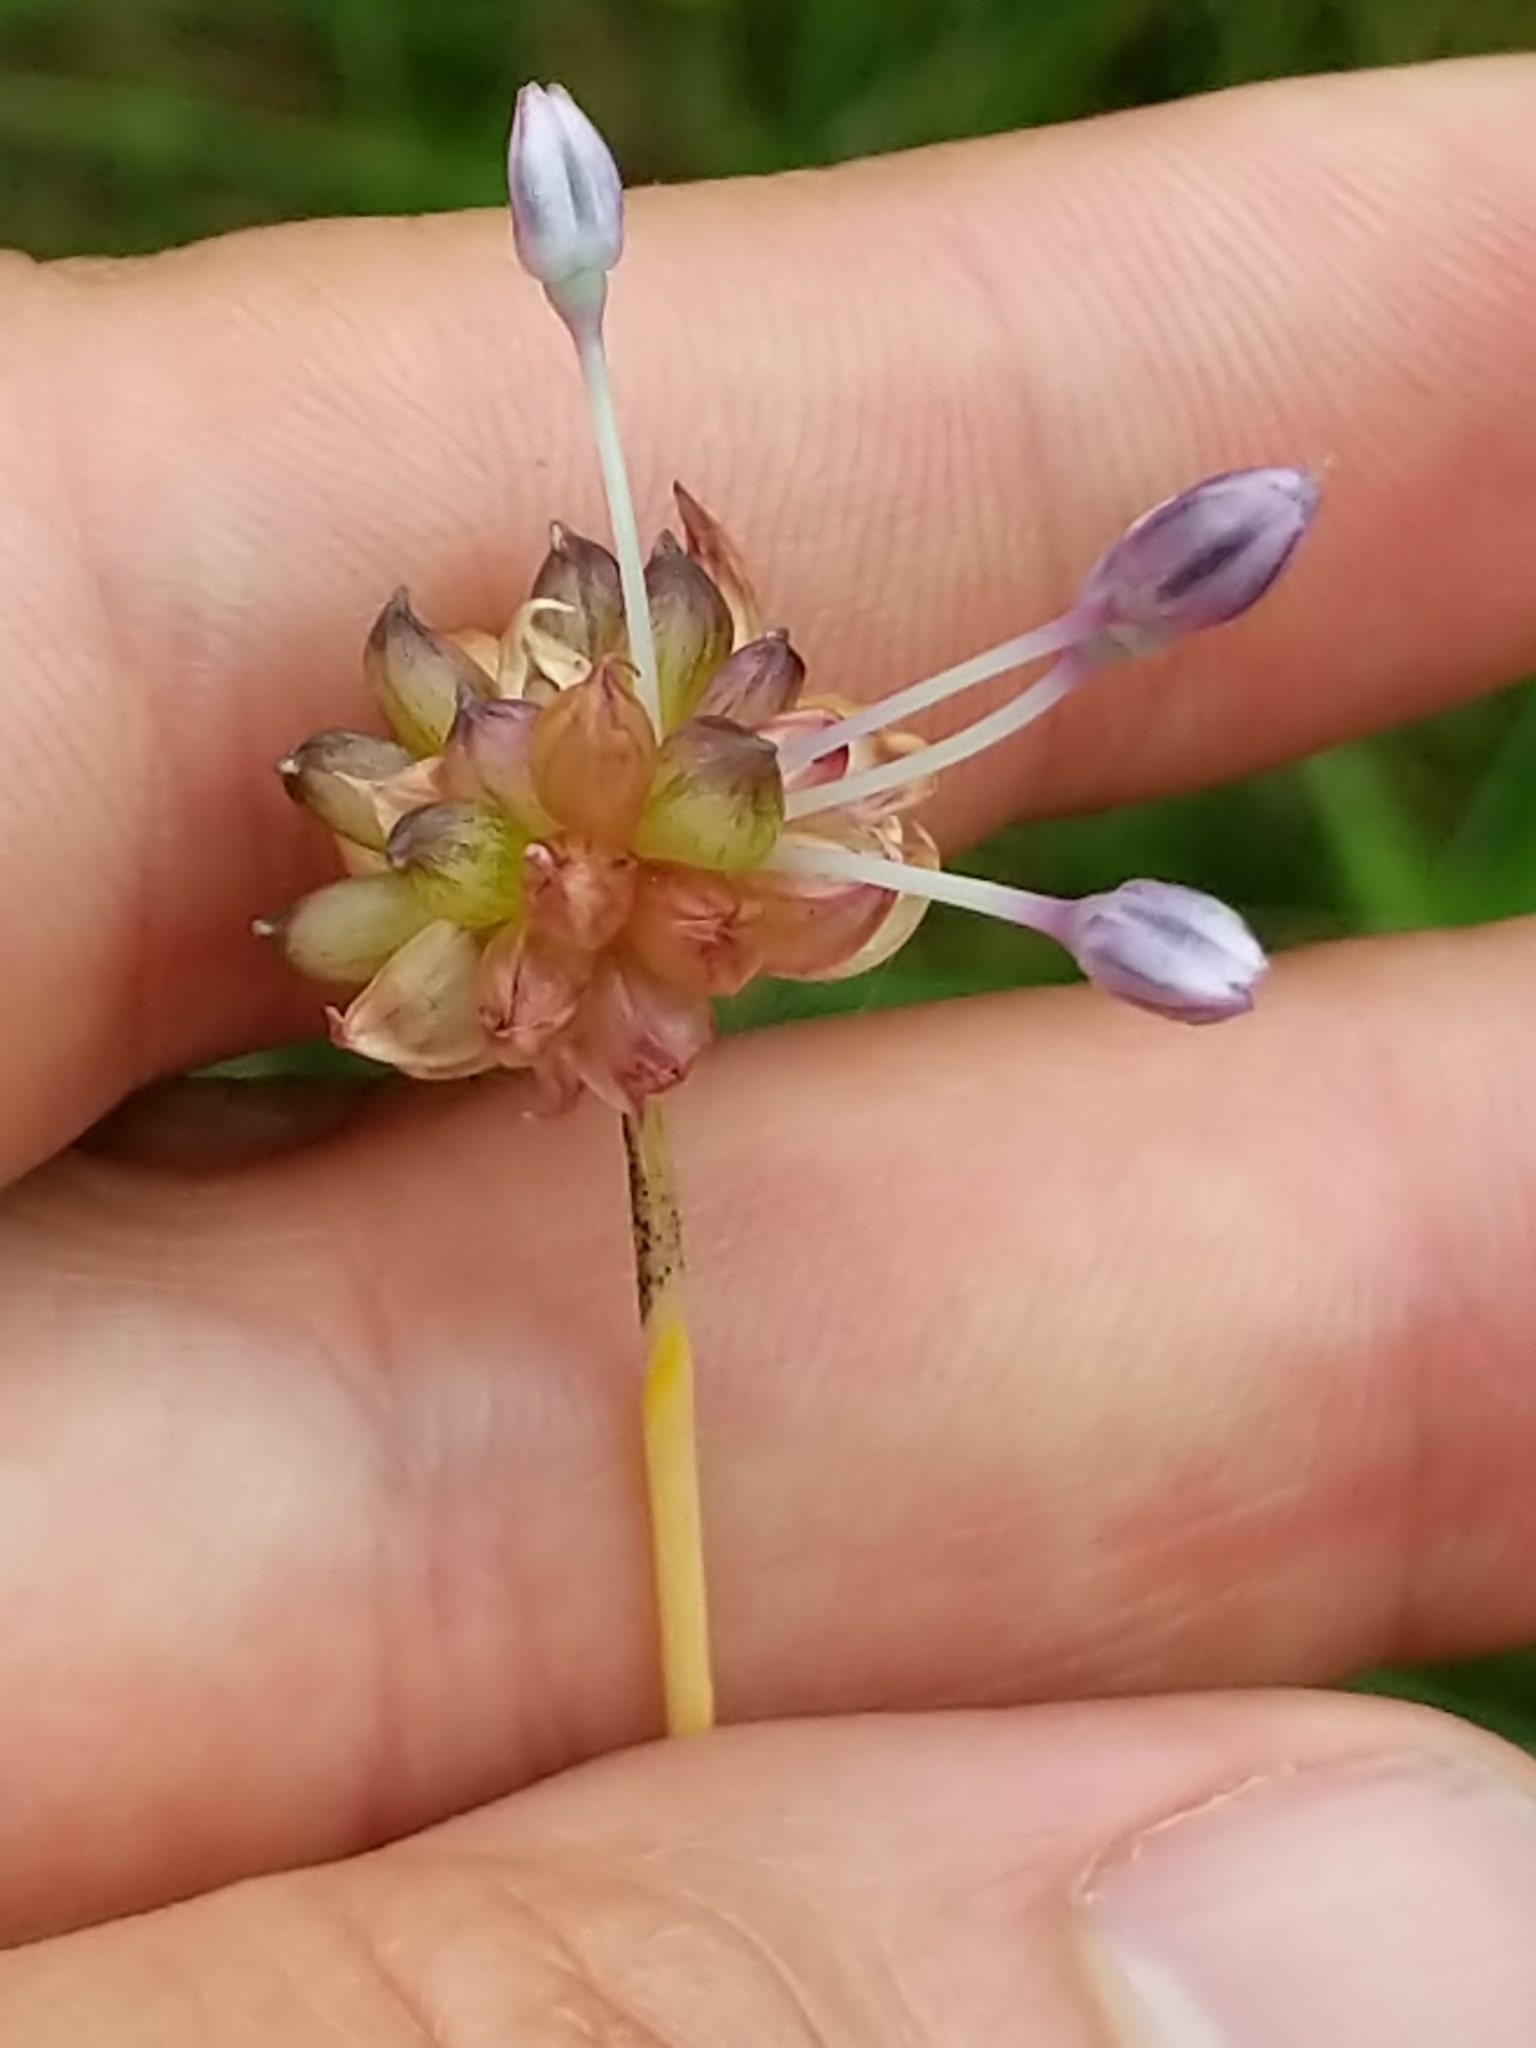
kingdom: Plantae
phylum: Tracheophyta
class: Liliopsida
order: Asparagales
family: Amaryllidaceae
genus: Allium
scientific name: Allium vineale
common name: Crow garlic
